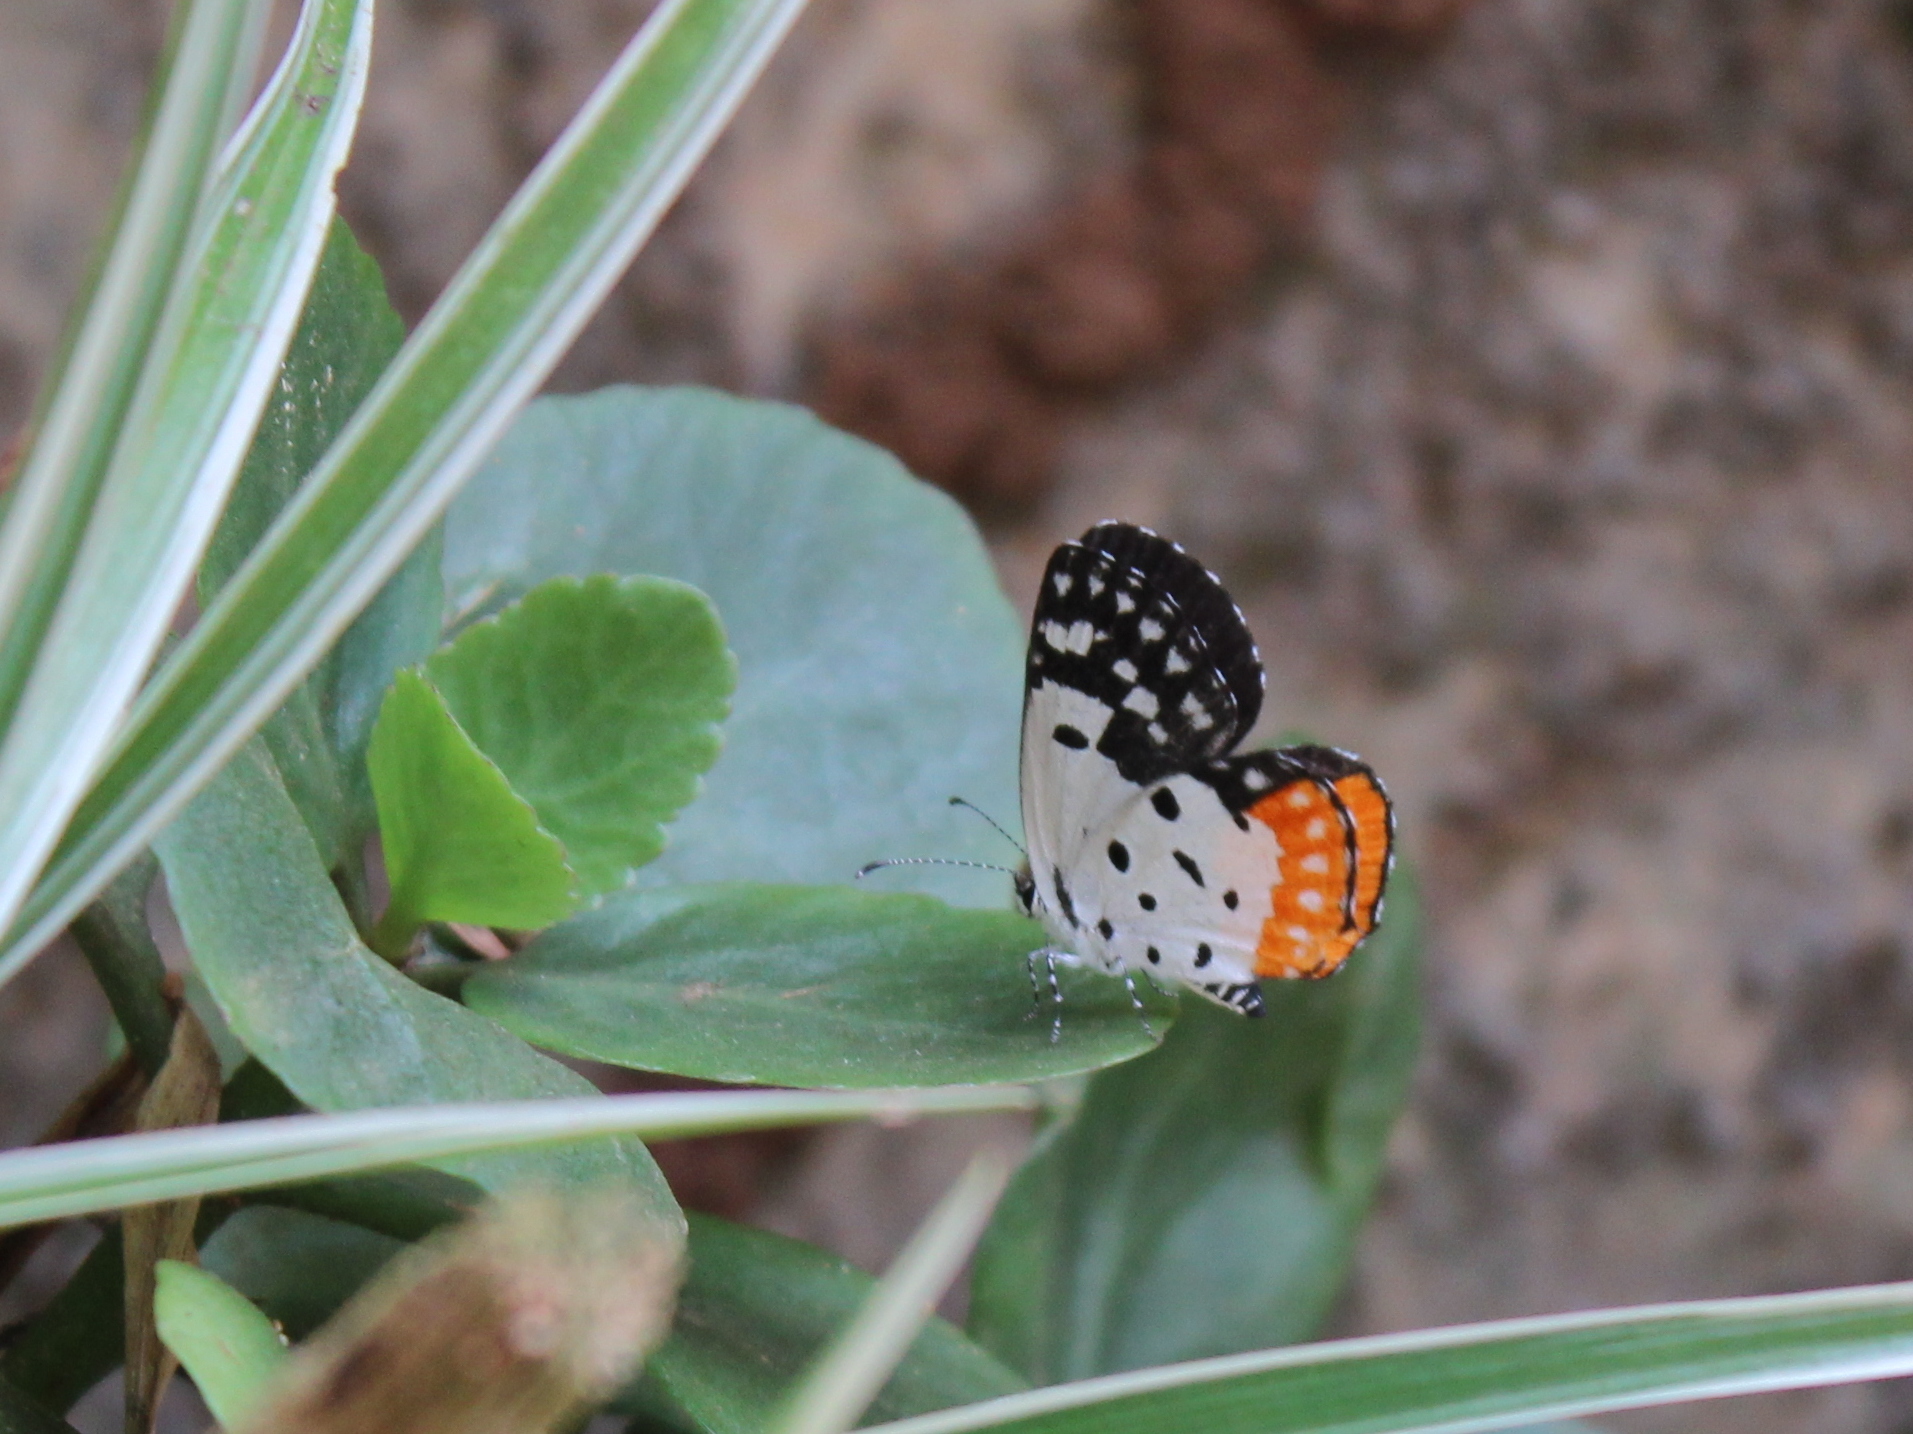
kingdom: Animalia
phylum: Arthropoda
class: Insecta
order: Lepidoptera
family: Lycaenidae
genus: Talicada
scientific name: Talicada nyseus
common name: Red pierrot
